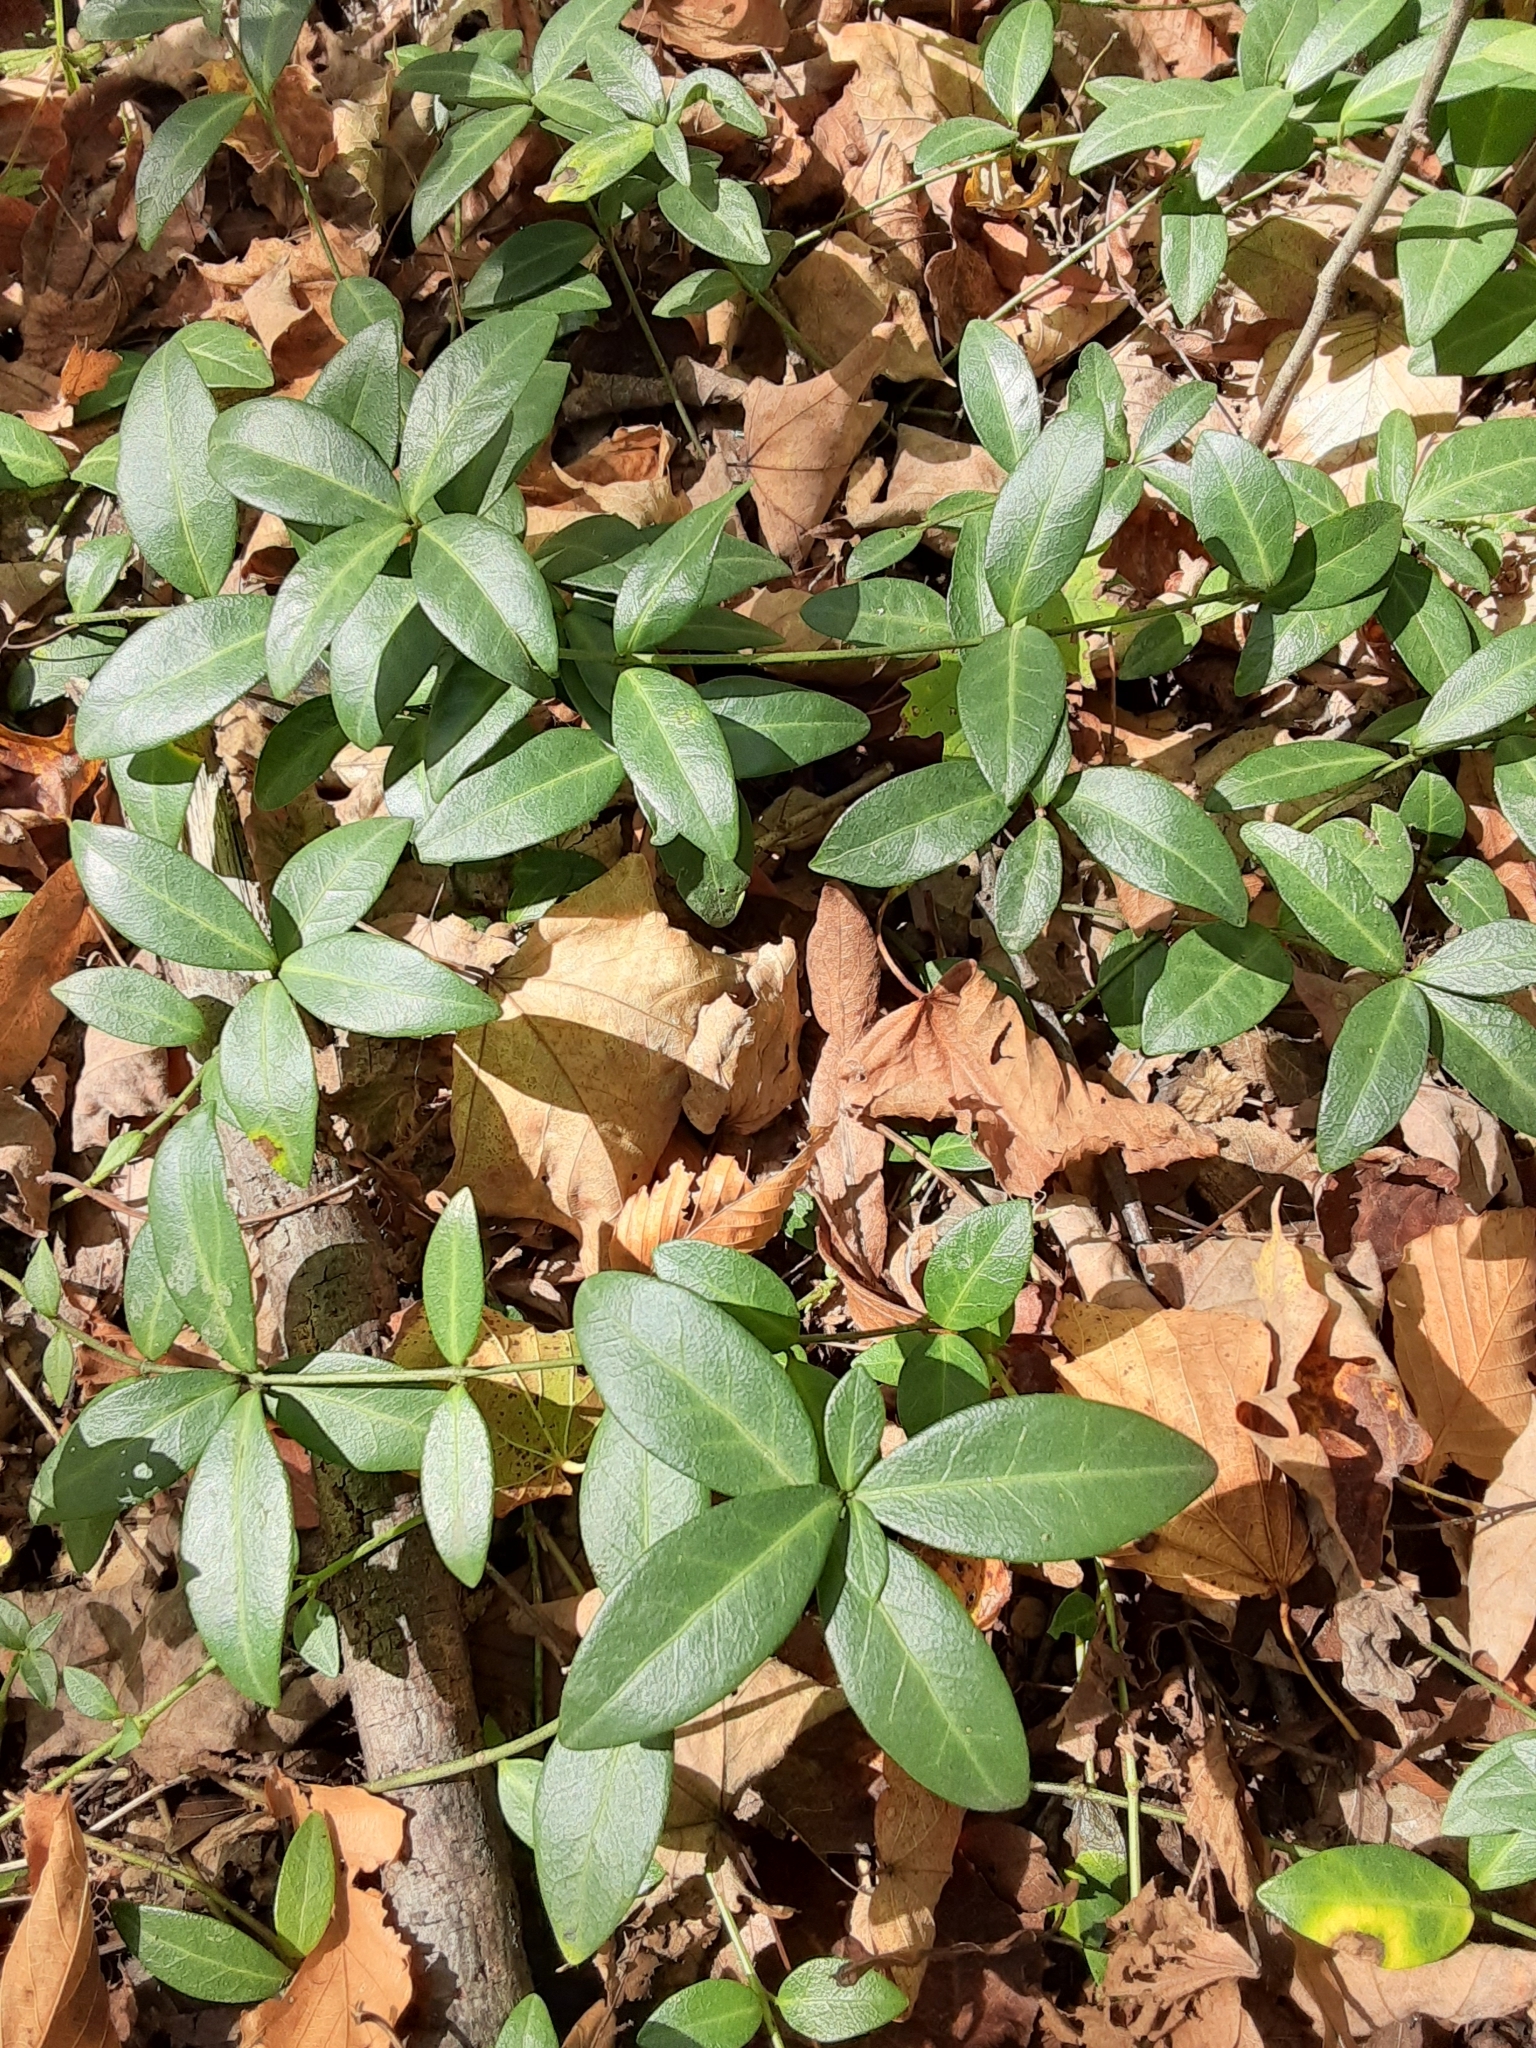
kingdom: Plantae
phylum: Tracheophyta
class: Magnoliopsida
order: Gentianales
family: Apocynaceae
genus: Vinca
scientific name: Vinca minor
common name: Lesser periwinkle
